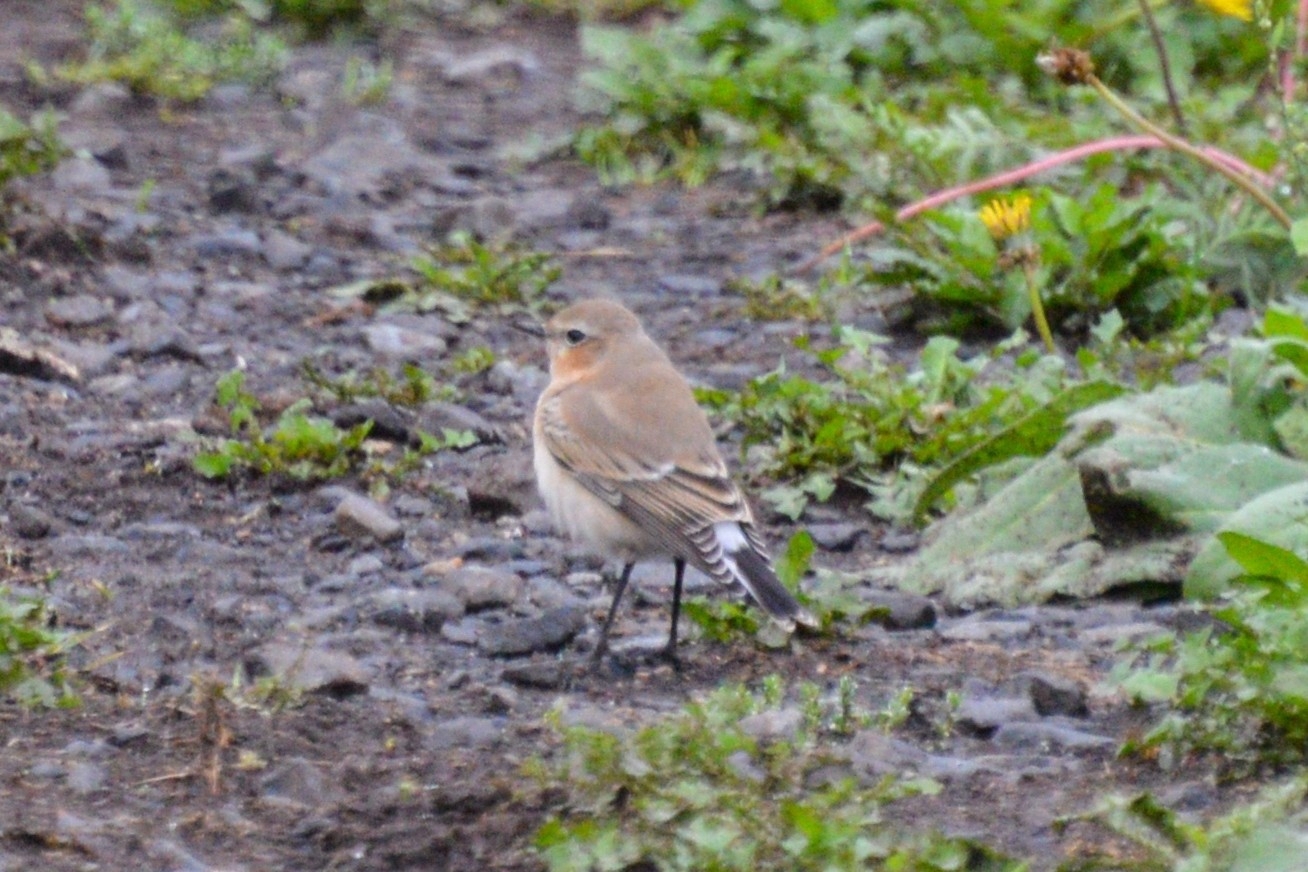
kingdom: Animalia
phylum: Chordata
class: Aves
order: Passeriformes
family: Muscicapidae
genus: Oenanthe
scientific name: Oenanthe oenanthe
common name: Northern wheatear
